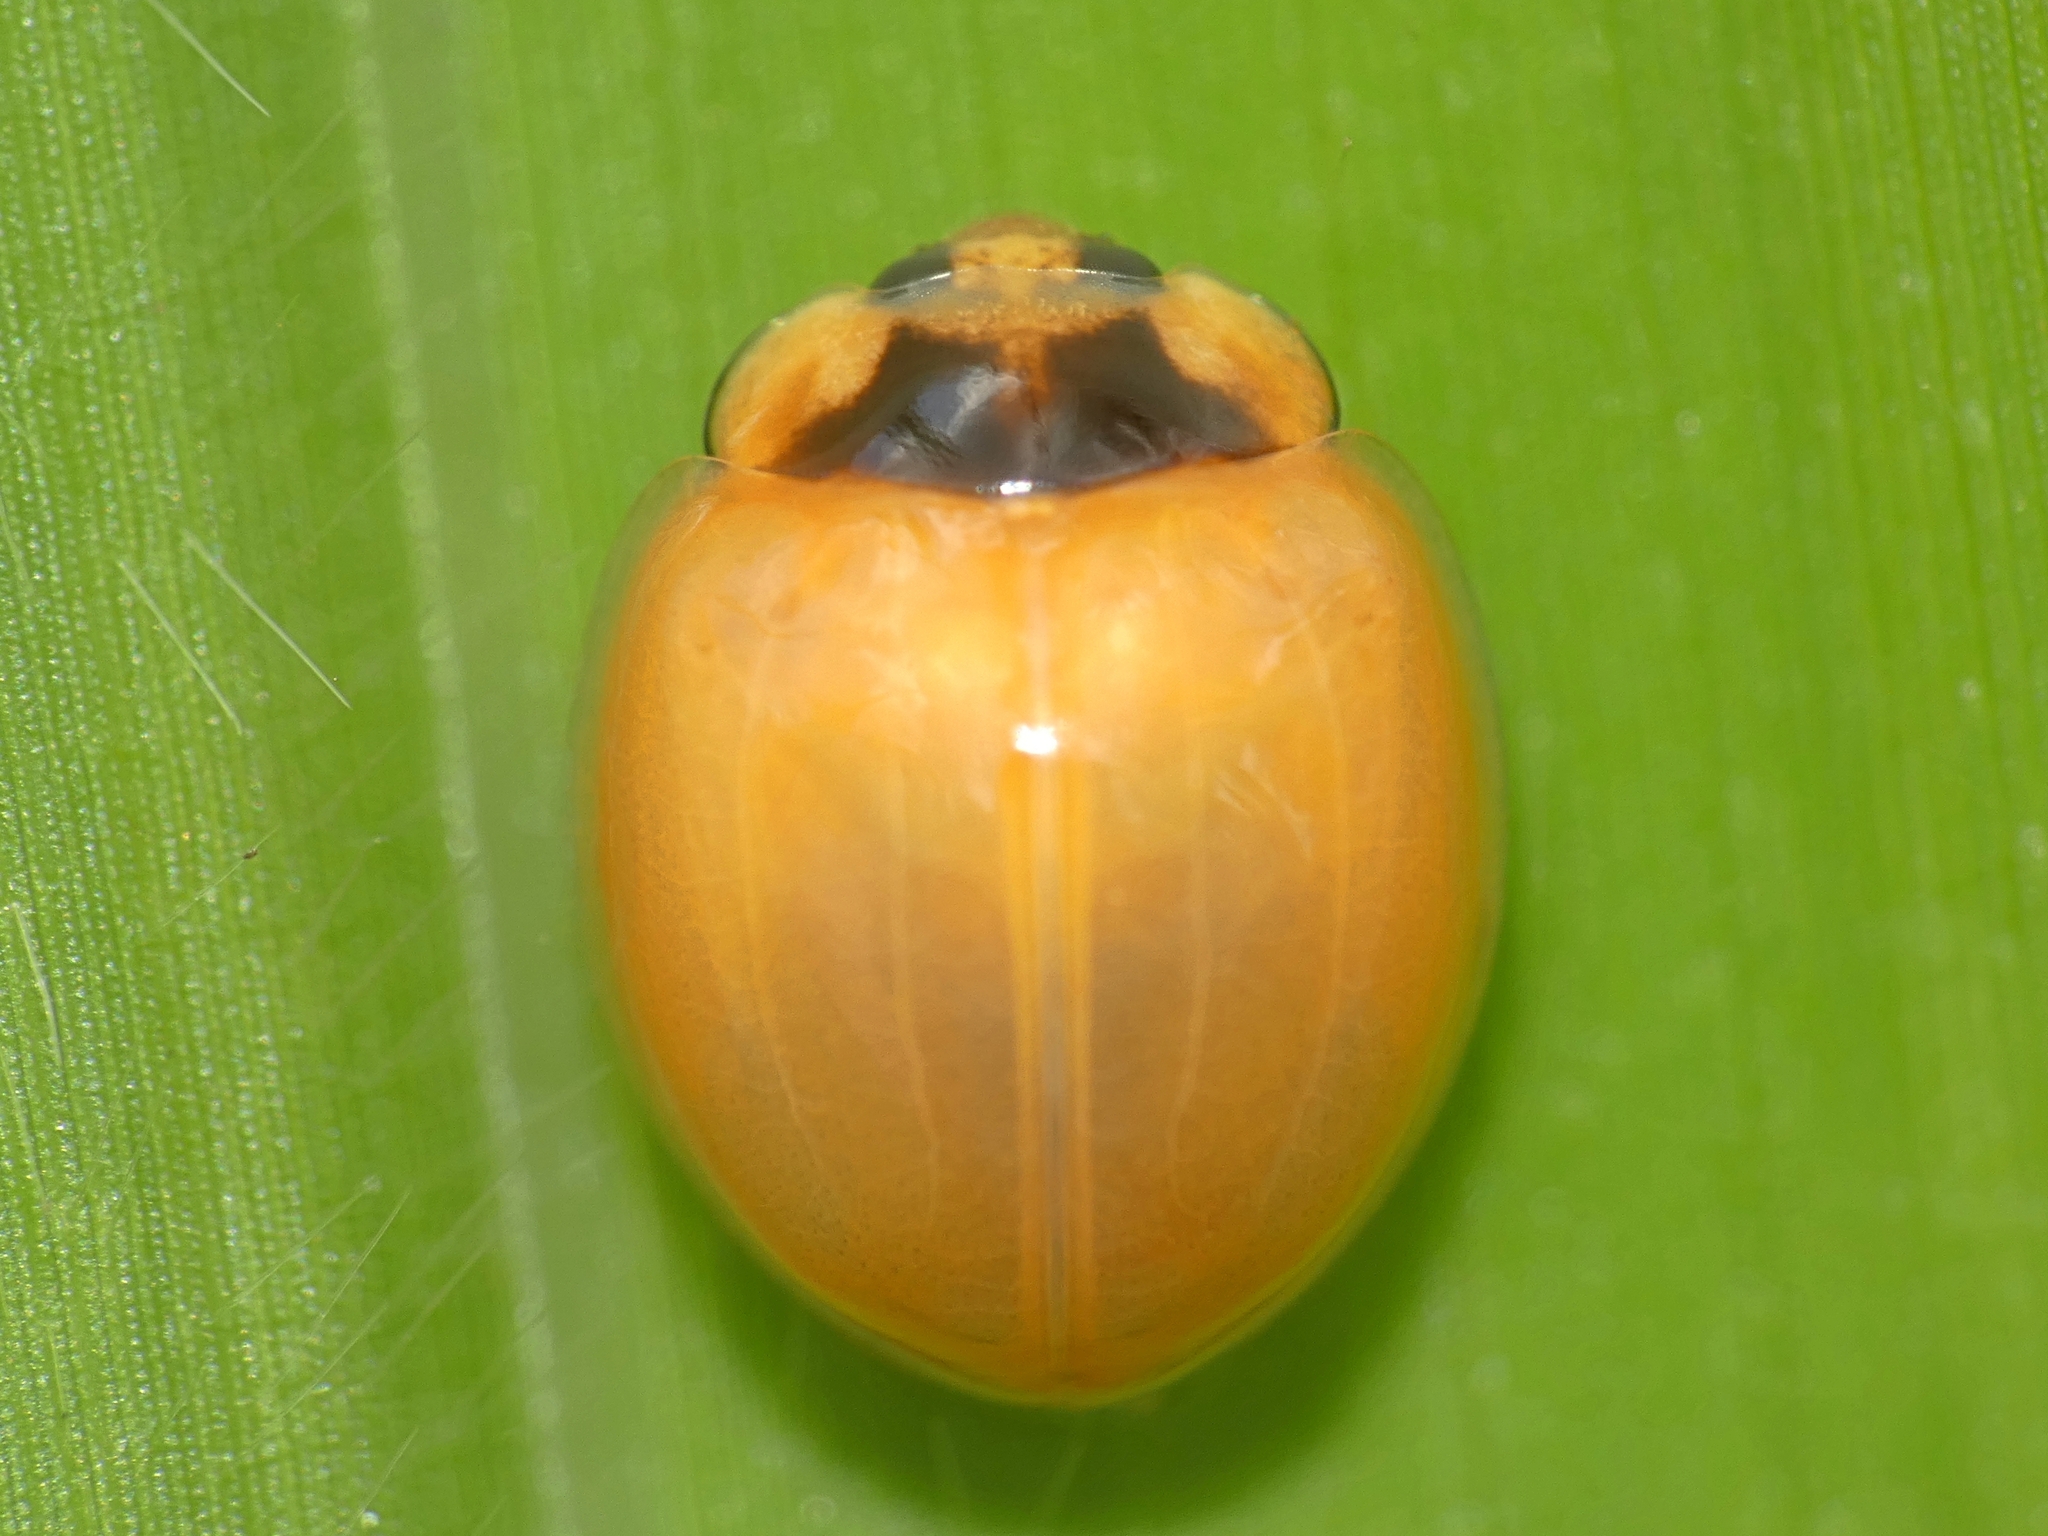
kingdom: Animalia
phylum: Arthropoda
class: Insecta
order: Coleoptera
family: Coccinellidae
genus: Coelophora
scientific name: Coelophora inaequalis
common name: Common australian lady beetle
